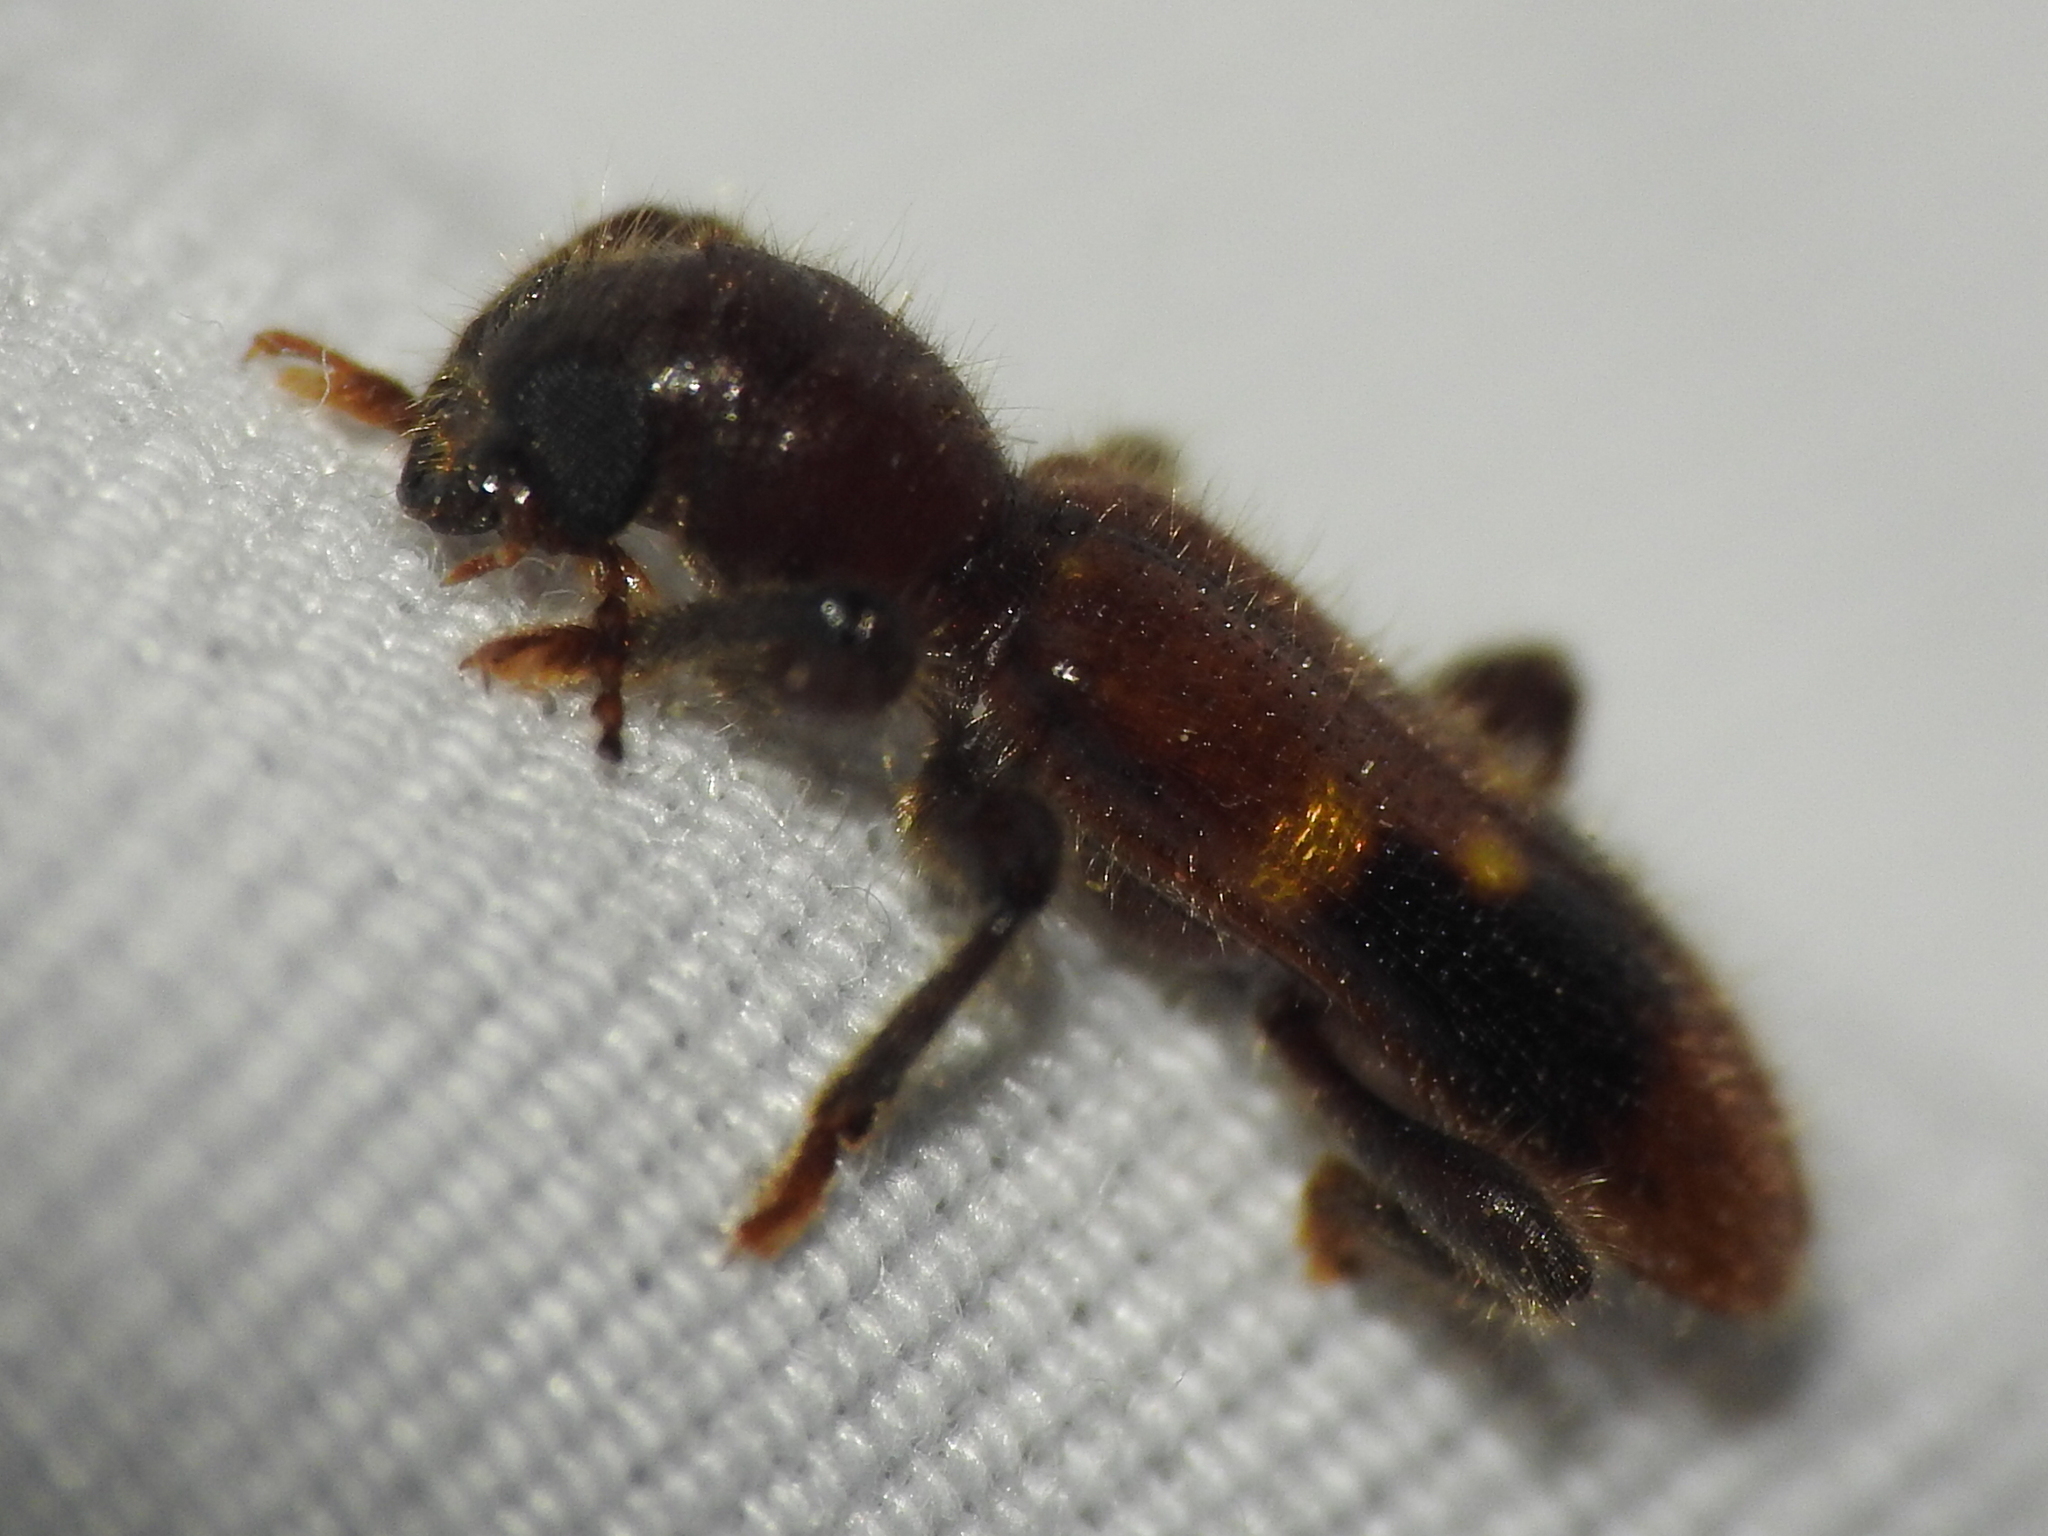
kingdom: Animalia
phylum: Arthropoda
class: Insecta
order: Coleoptera
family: Cleridae
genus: Priocera
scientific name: Priocera castanea
